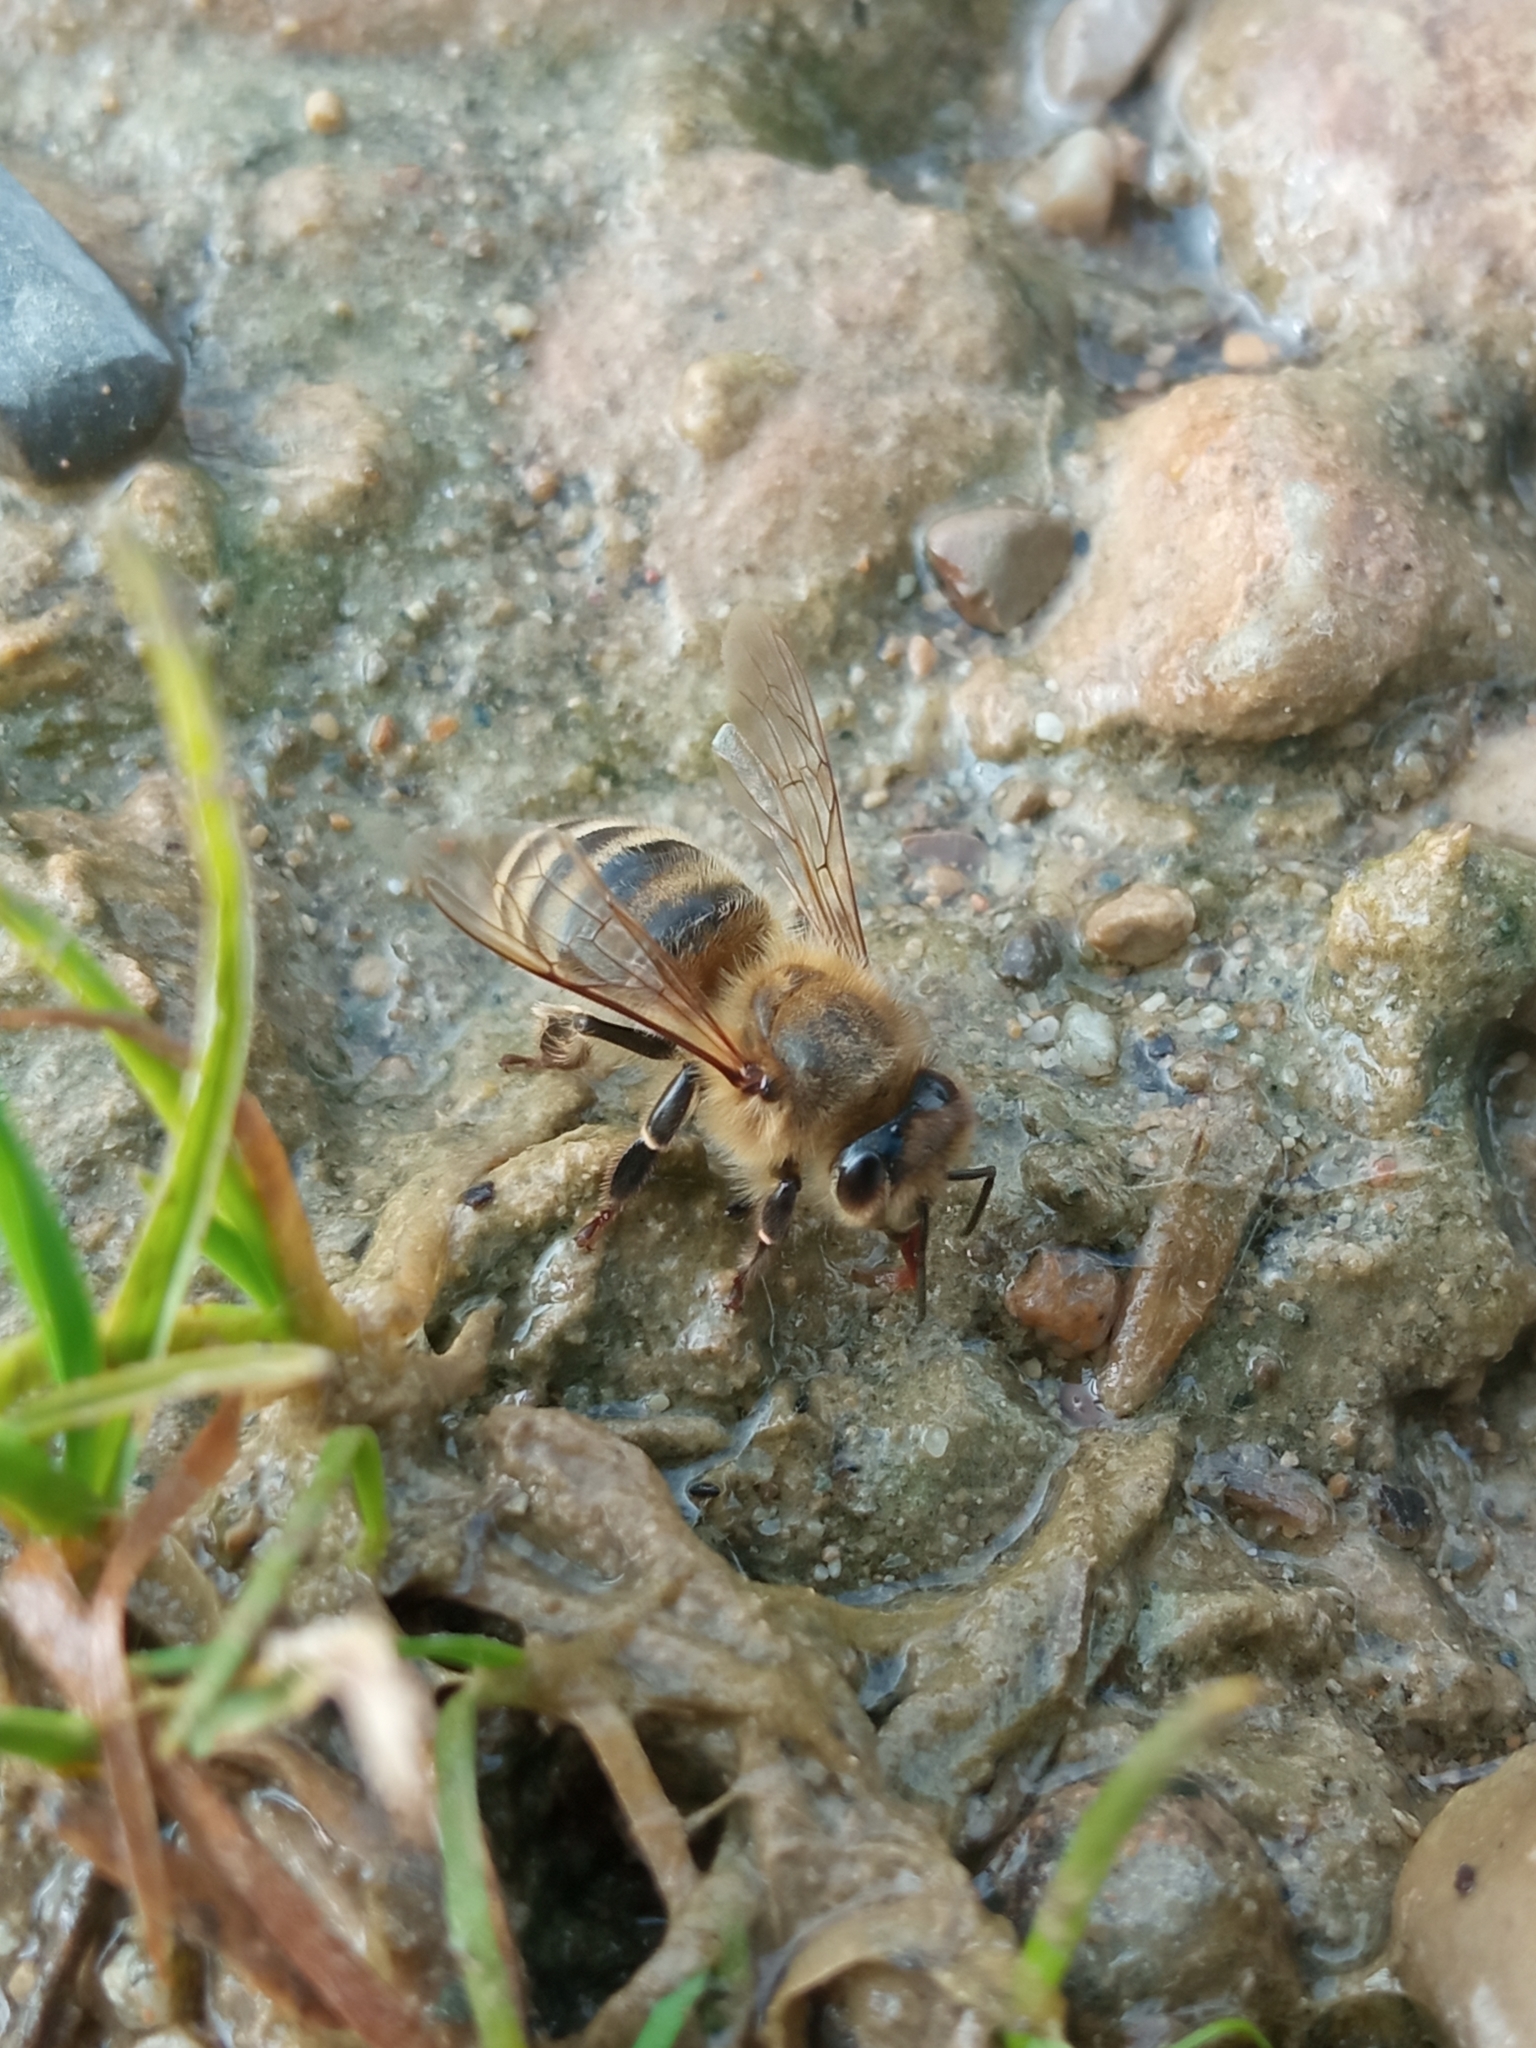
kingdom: Animalia
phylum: Arthropoda
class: Insecta
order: Hymenoptera
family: Apidae
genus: Apis
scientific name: Apis mellifera
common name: Honey bee
